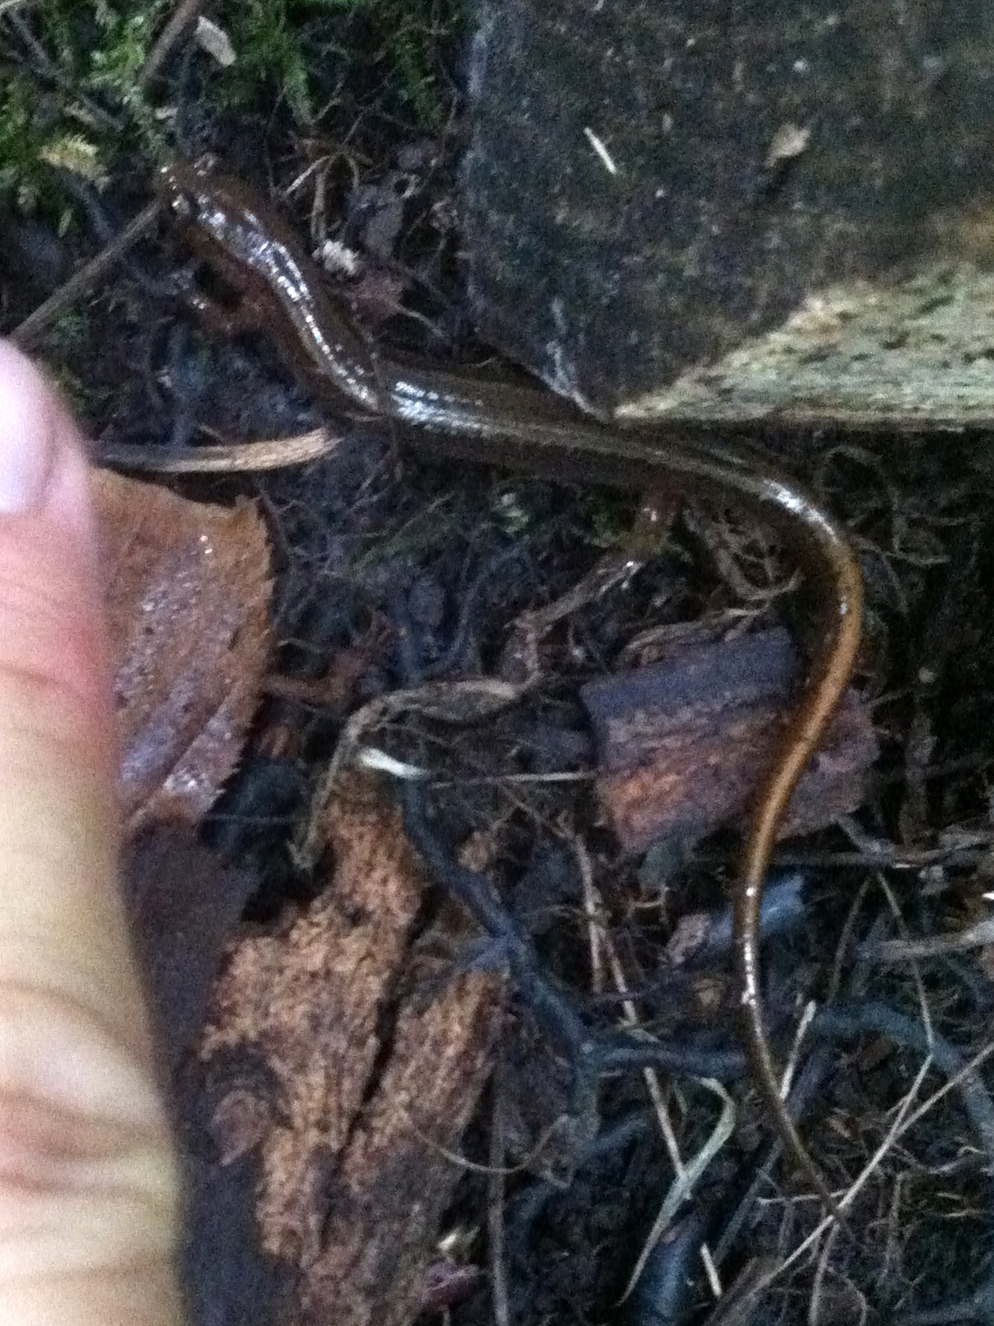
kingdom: Animalia
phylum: Chordata
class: Amphibia
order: Caudata
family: Plethodontidae
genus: Eurycea
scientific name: Eurycea bislineata
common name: Northern two-lined salamander
